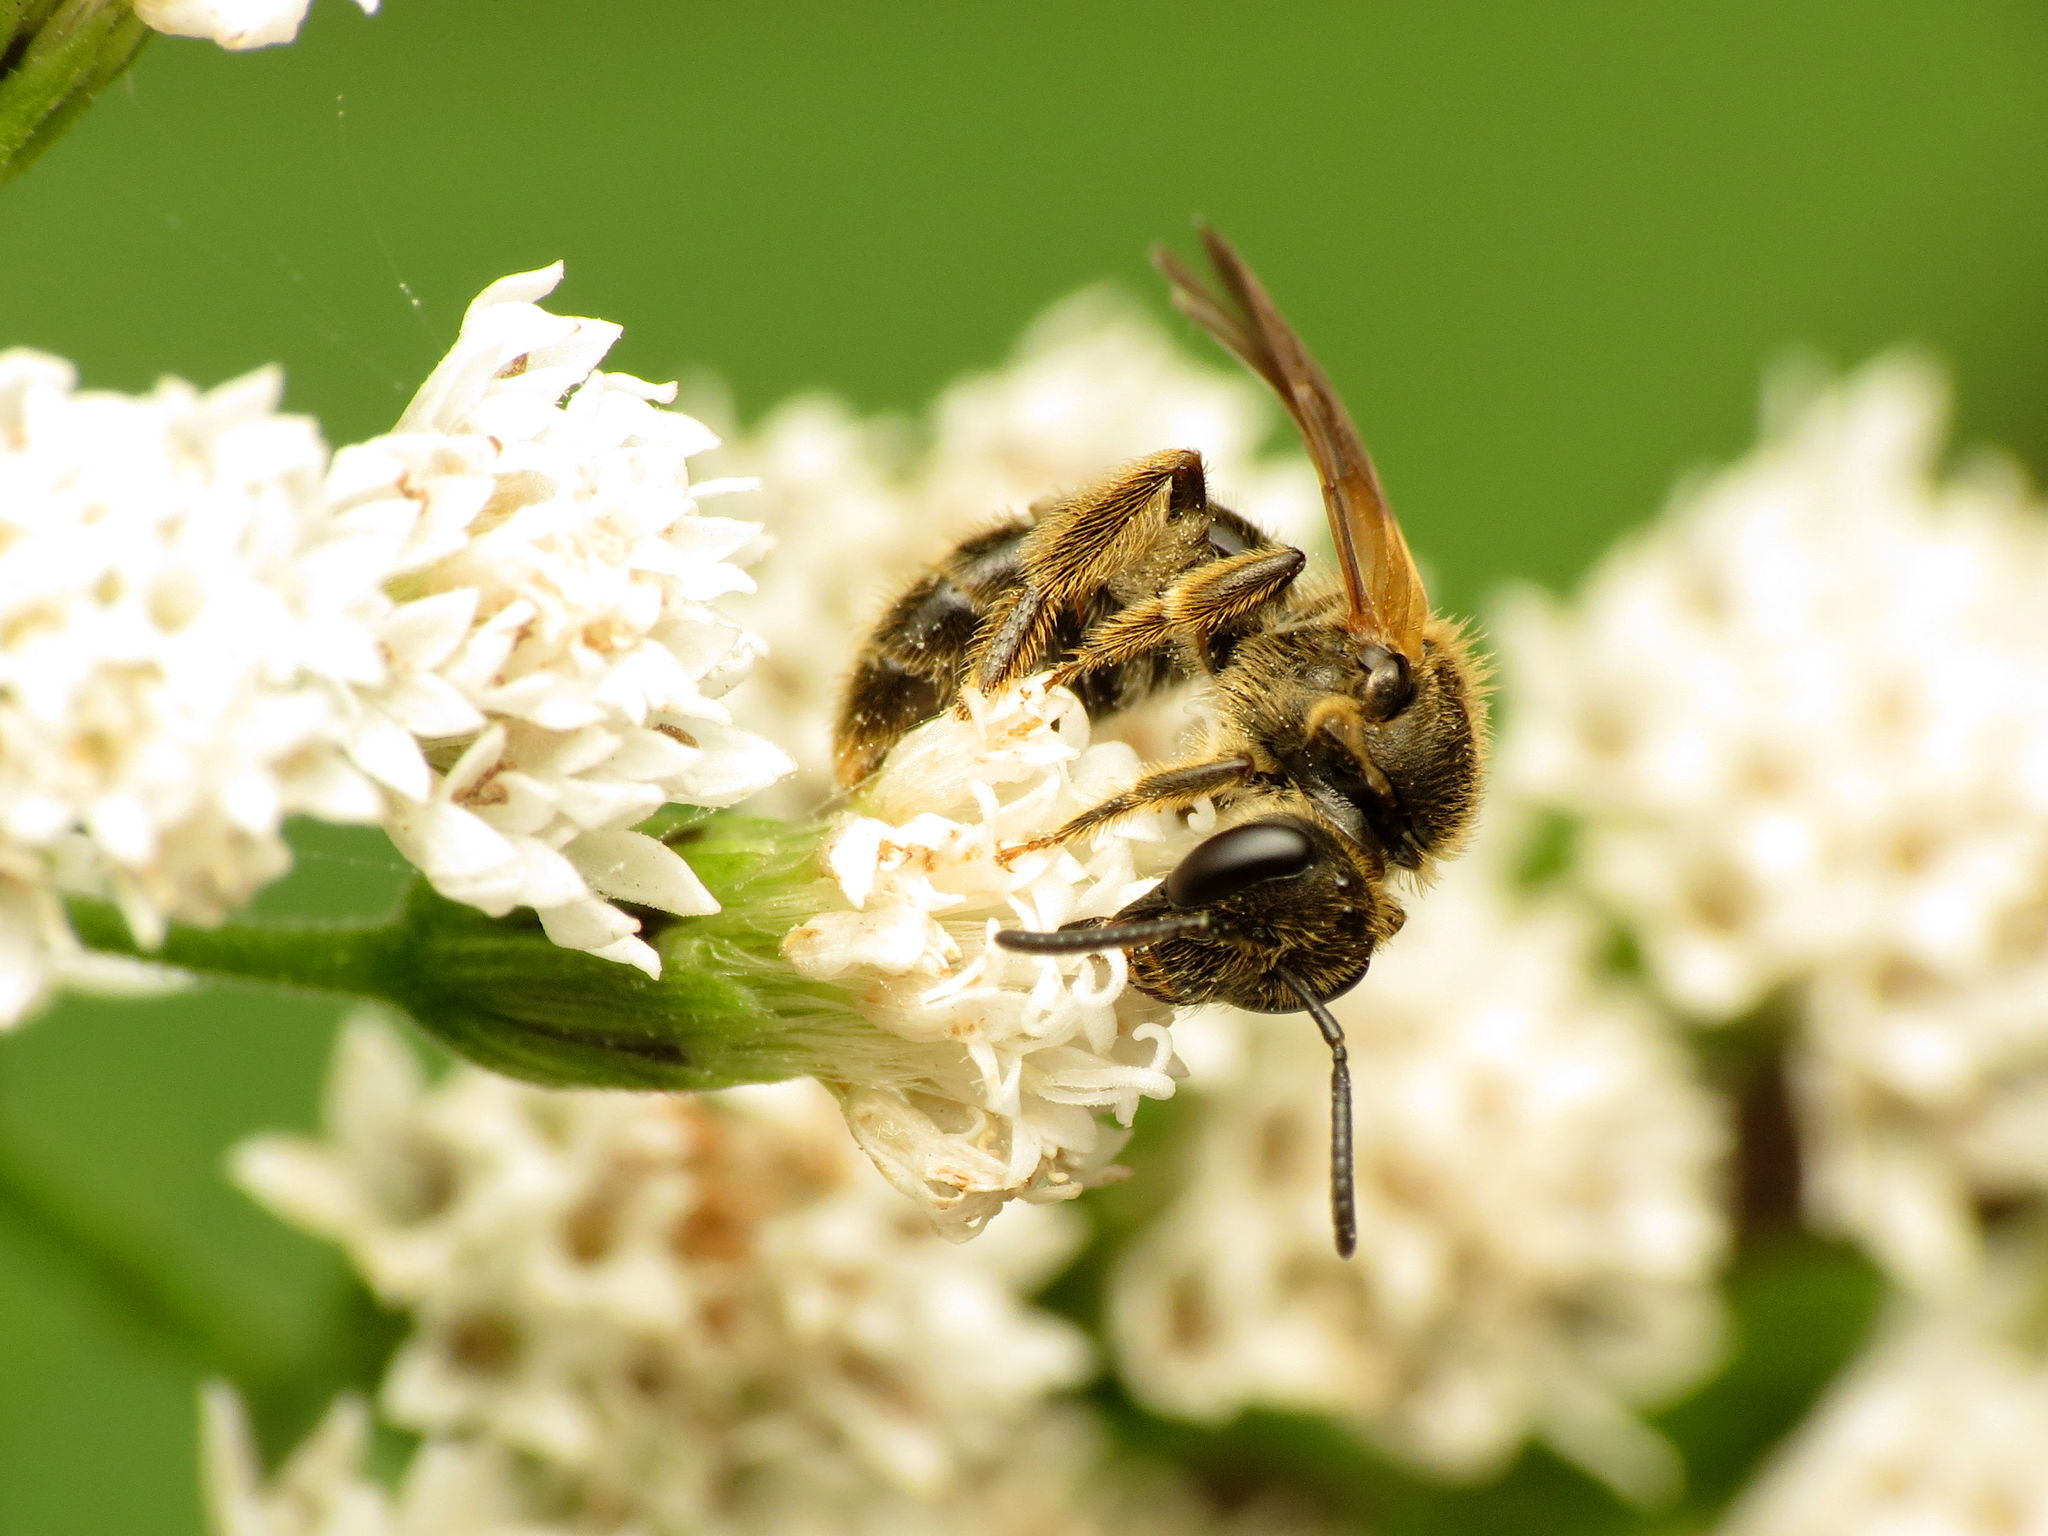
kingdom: Animalia
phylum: Arthropoda
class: Insecta
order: Hymenoptera
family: Halictidae
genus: Lasioglossum
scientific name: Lasioglossum quebecense
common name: Quebec sweat bee
